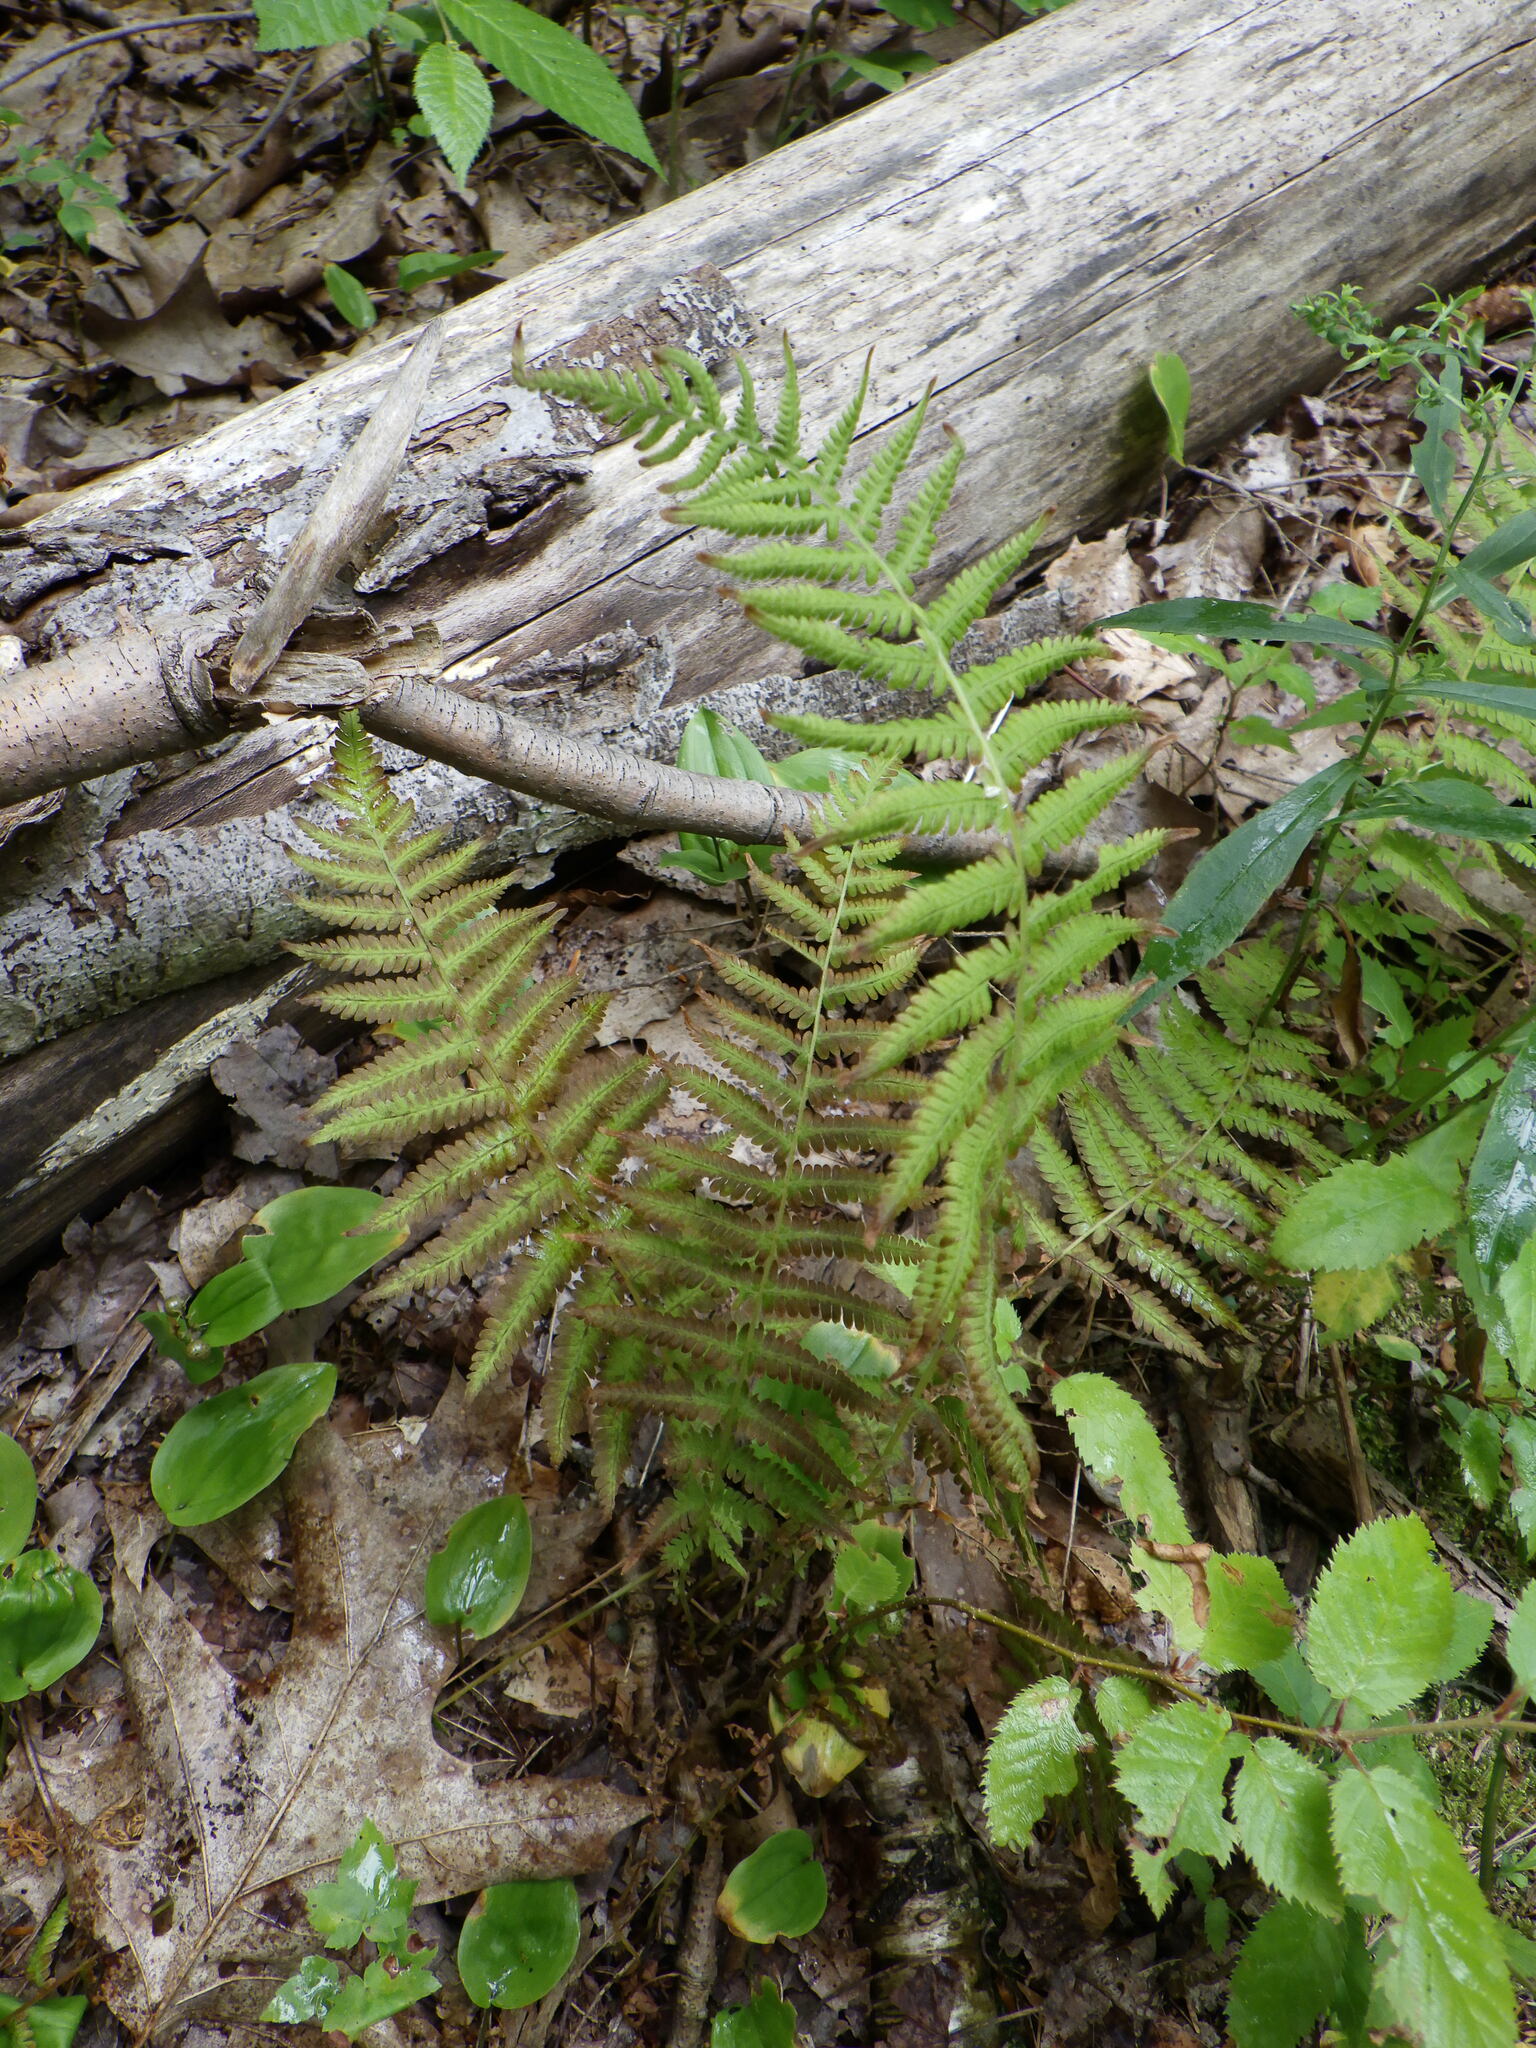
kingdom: Plantae
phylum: Tracheophyta
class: Polypodiopsida
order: Polypodiales
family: Thelypteridaceae
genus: Amauropelta
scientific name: Amauropelta noveboracensis
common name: New york fern
